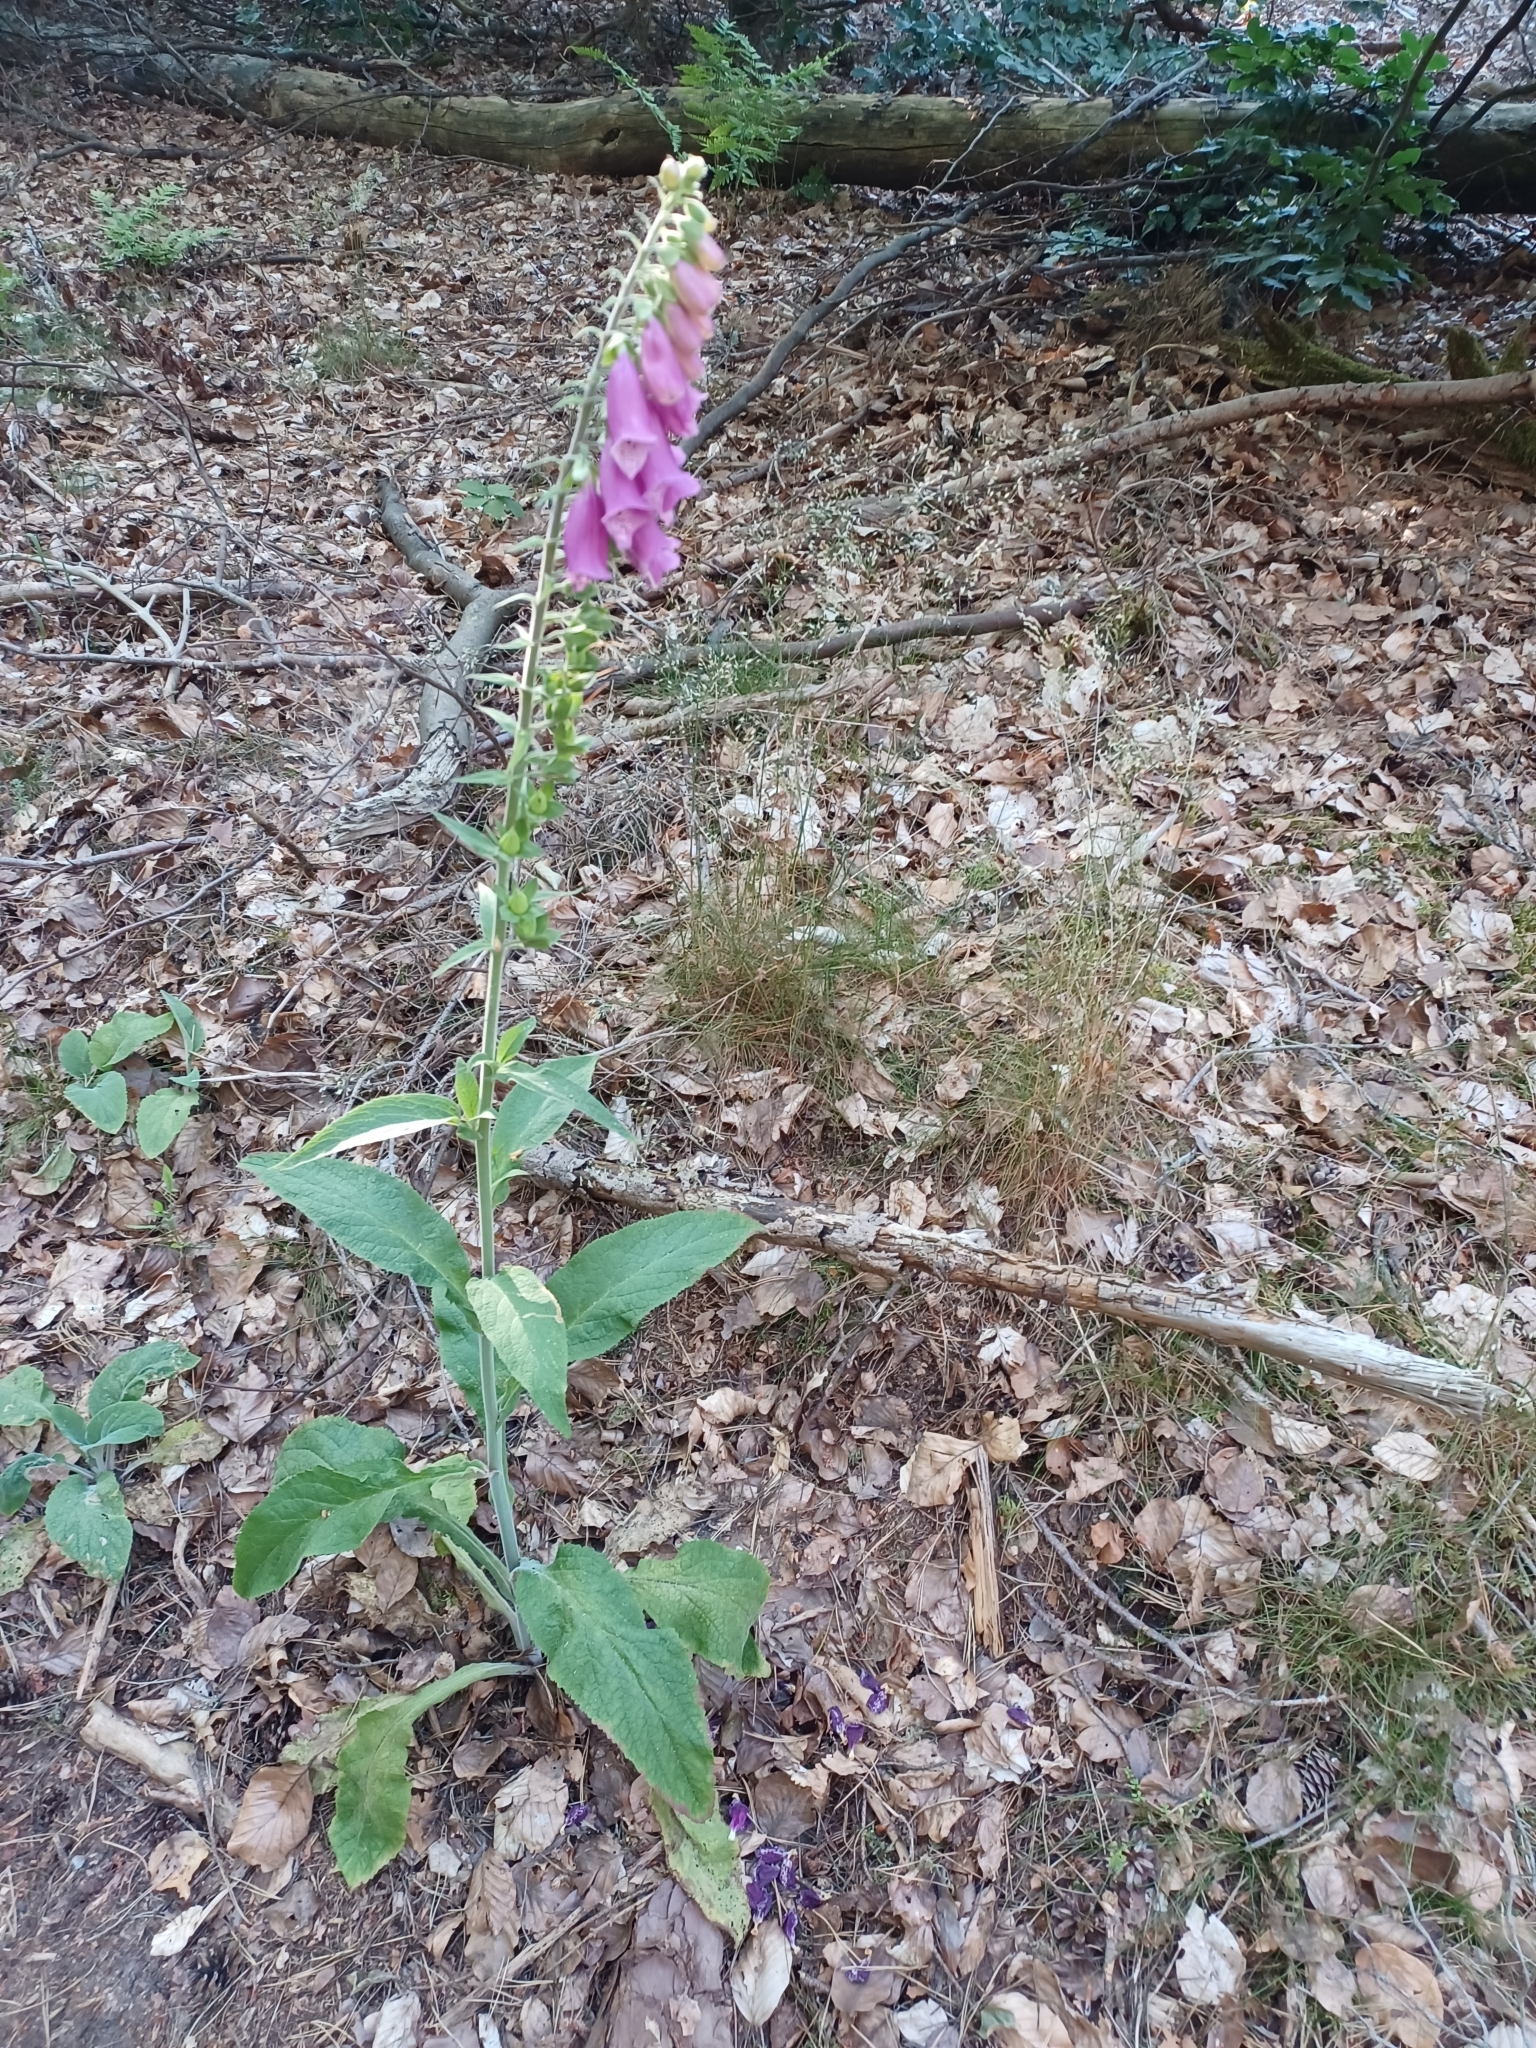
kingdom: Plantae
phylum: Tracheophyta
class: Magnoliopsida
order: Lamiales
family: Plantaginaceae
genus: Digitalis
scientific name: Digitalis purpurea
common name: Foxglove
